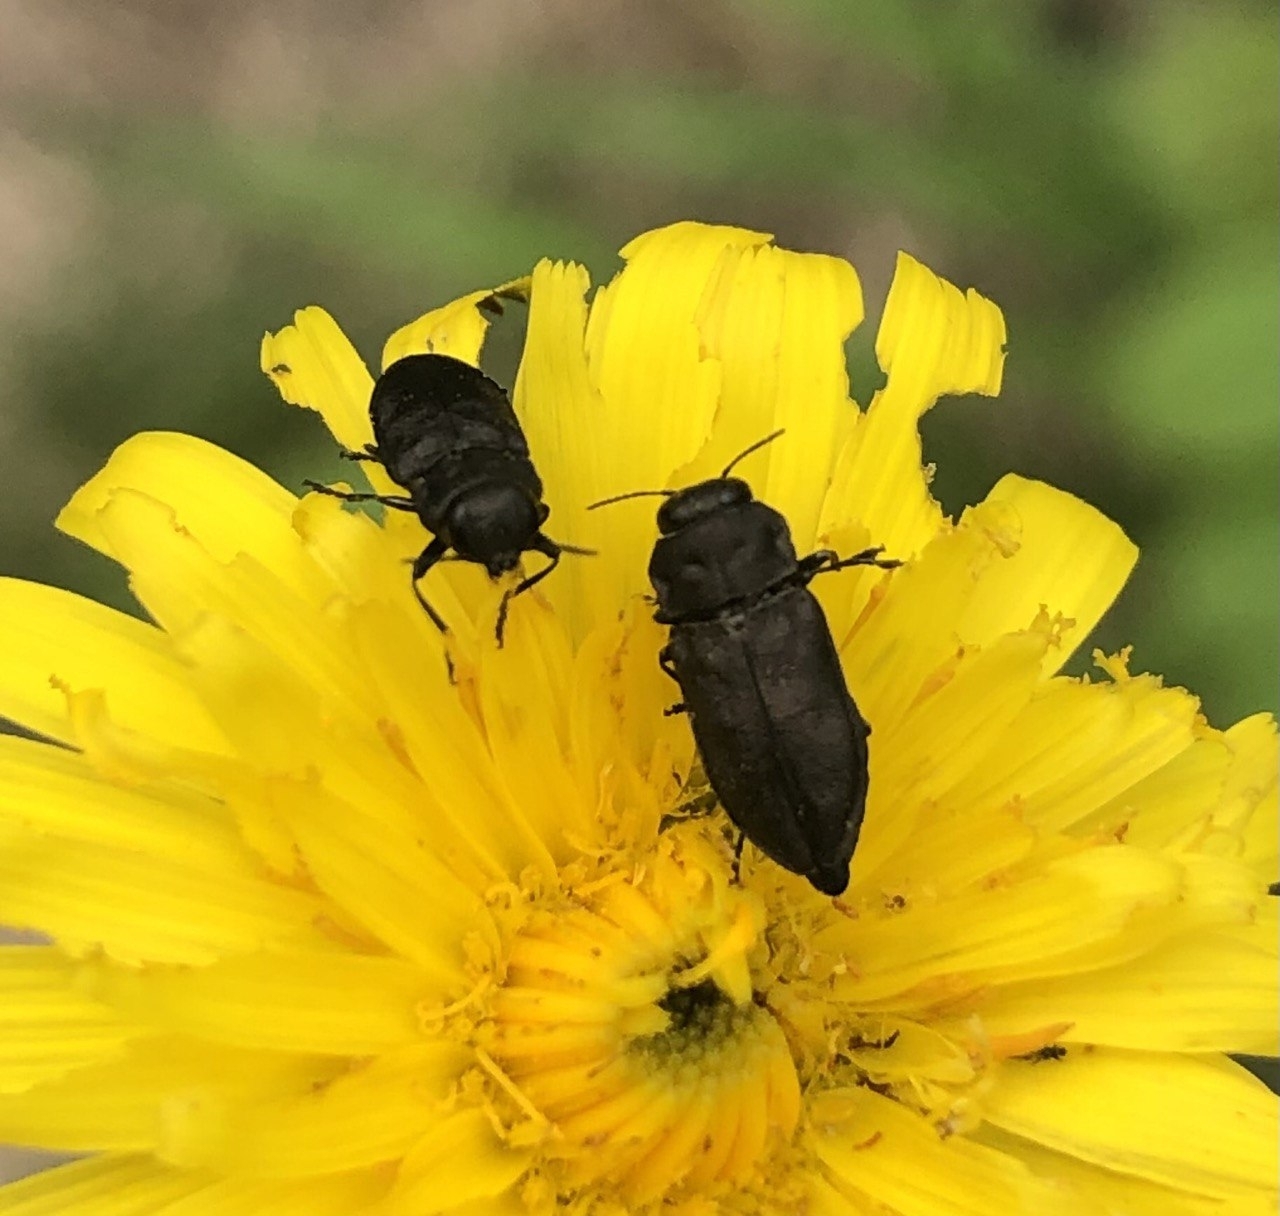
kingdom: Animalia
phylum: Arthropoda
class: Insecta
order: Coleoptera
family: Buprestidae
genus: Anthaxia
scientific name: Anthaxia quadripunctata
